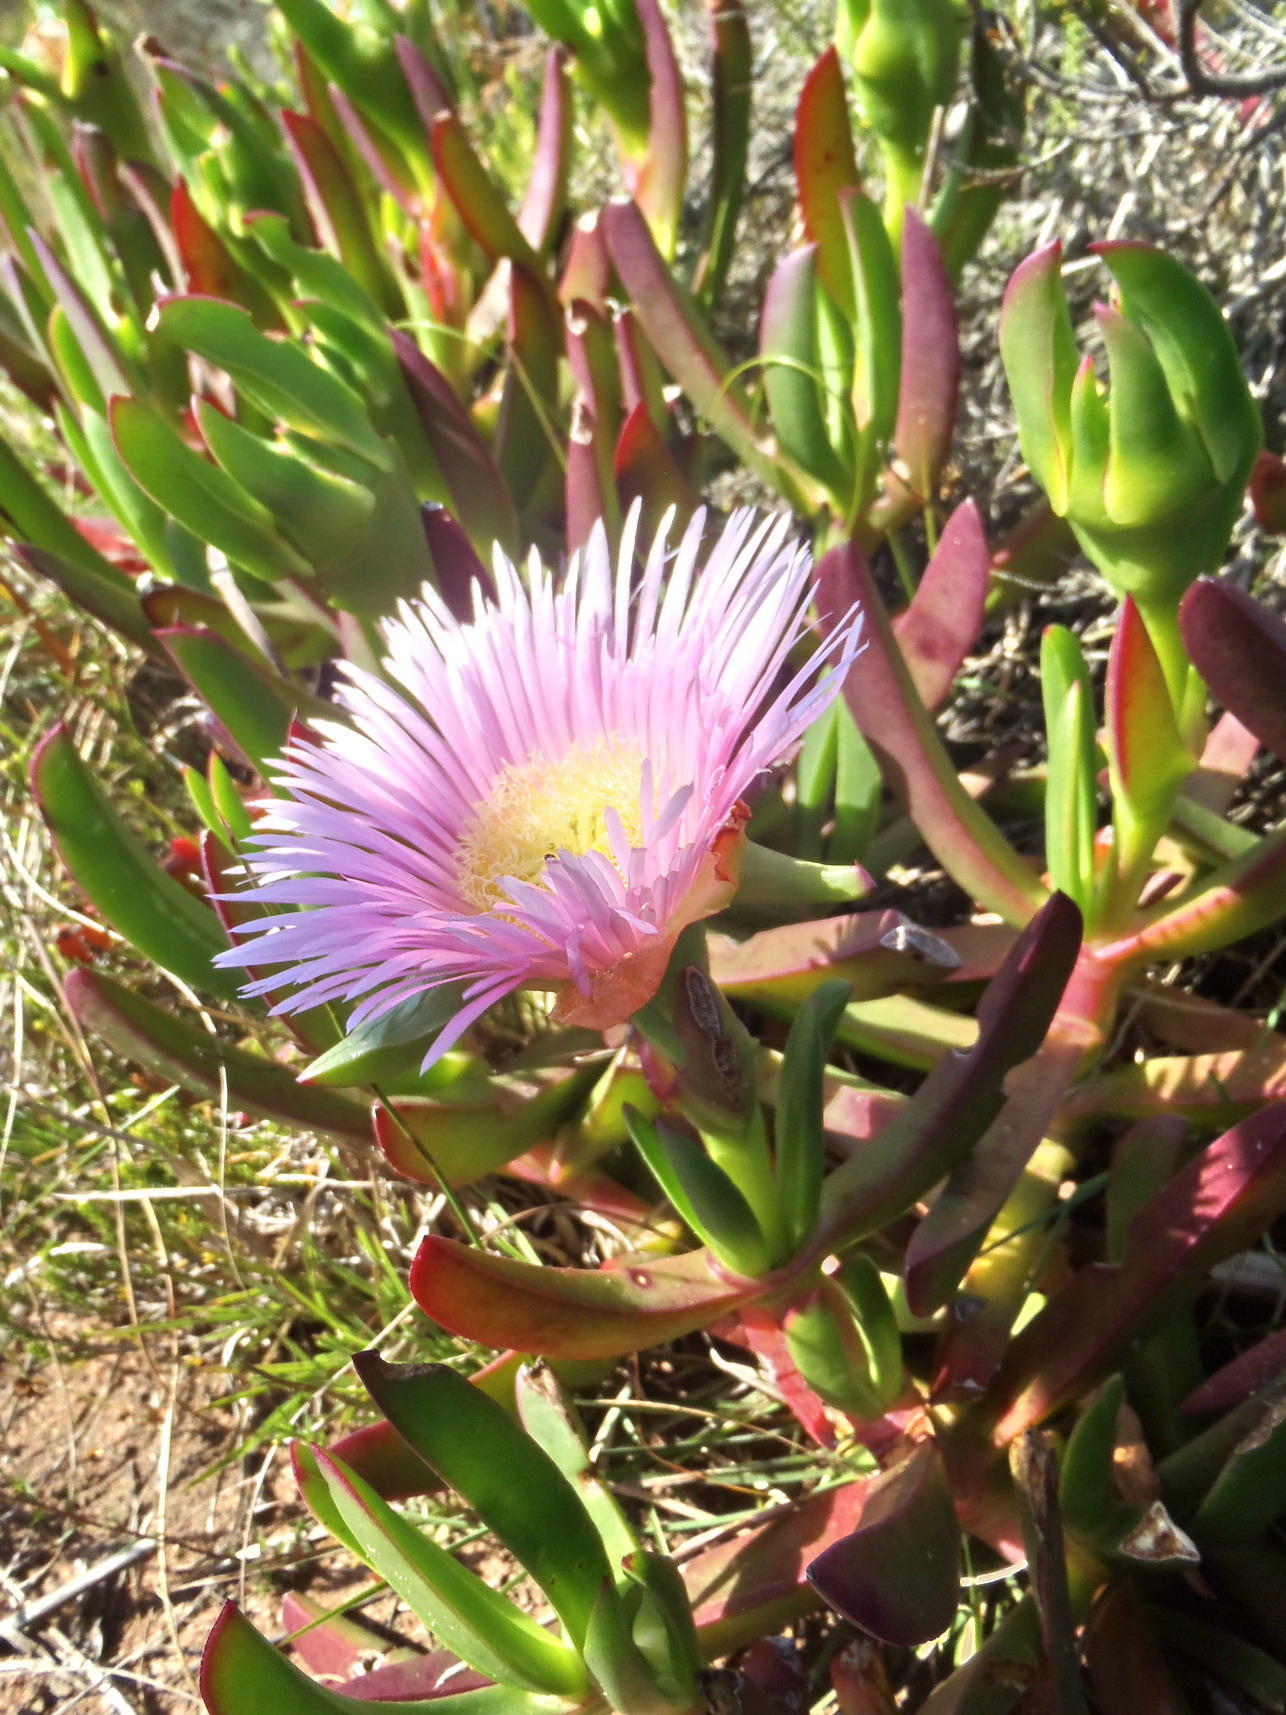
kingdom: Plantae
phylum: Tracheophyta
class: Magnoliopsida
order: Caryophyllales
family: Aizoaceae
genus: Carpobrotus
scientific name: Carpobrotus mellei
